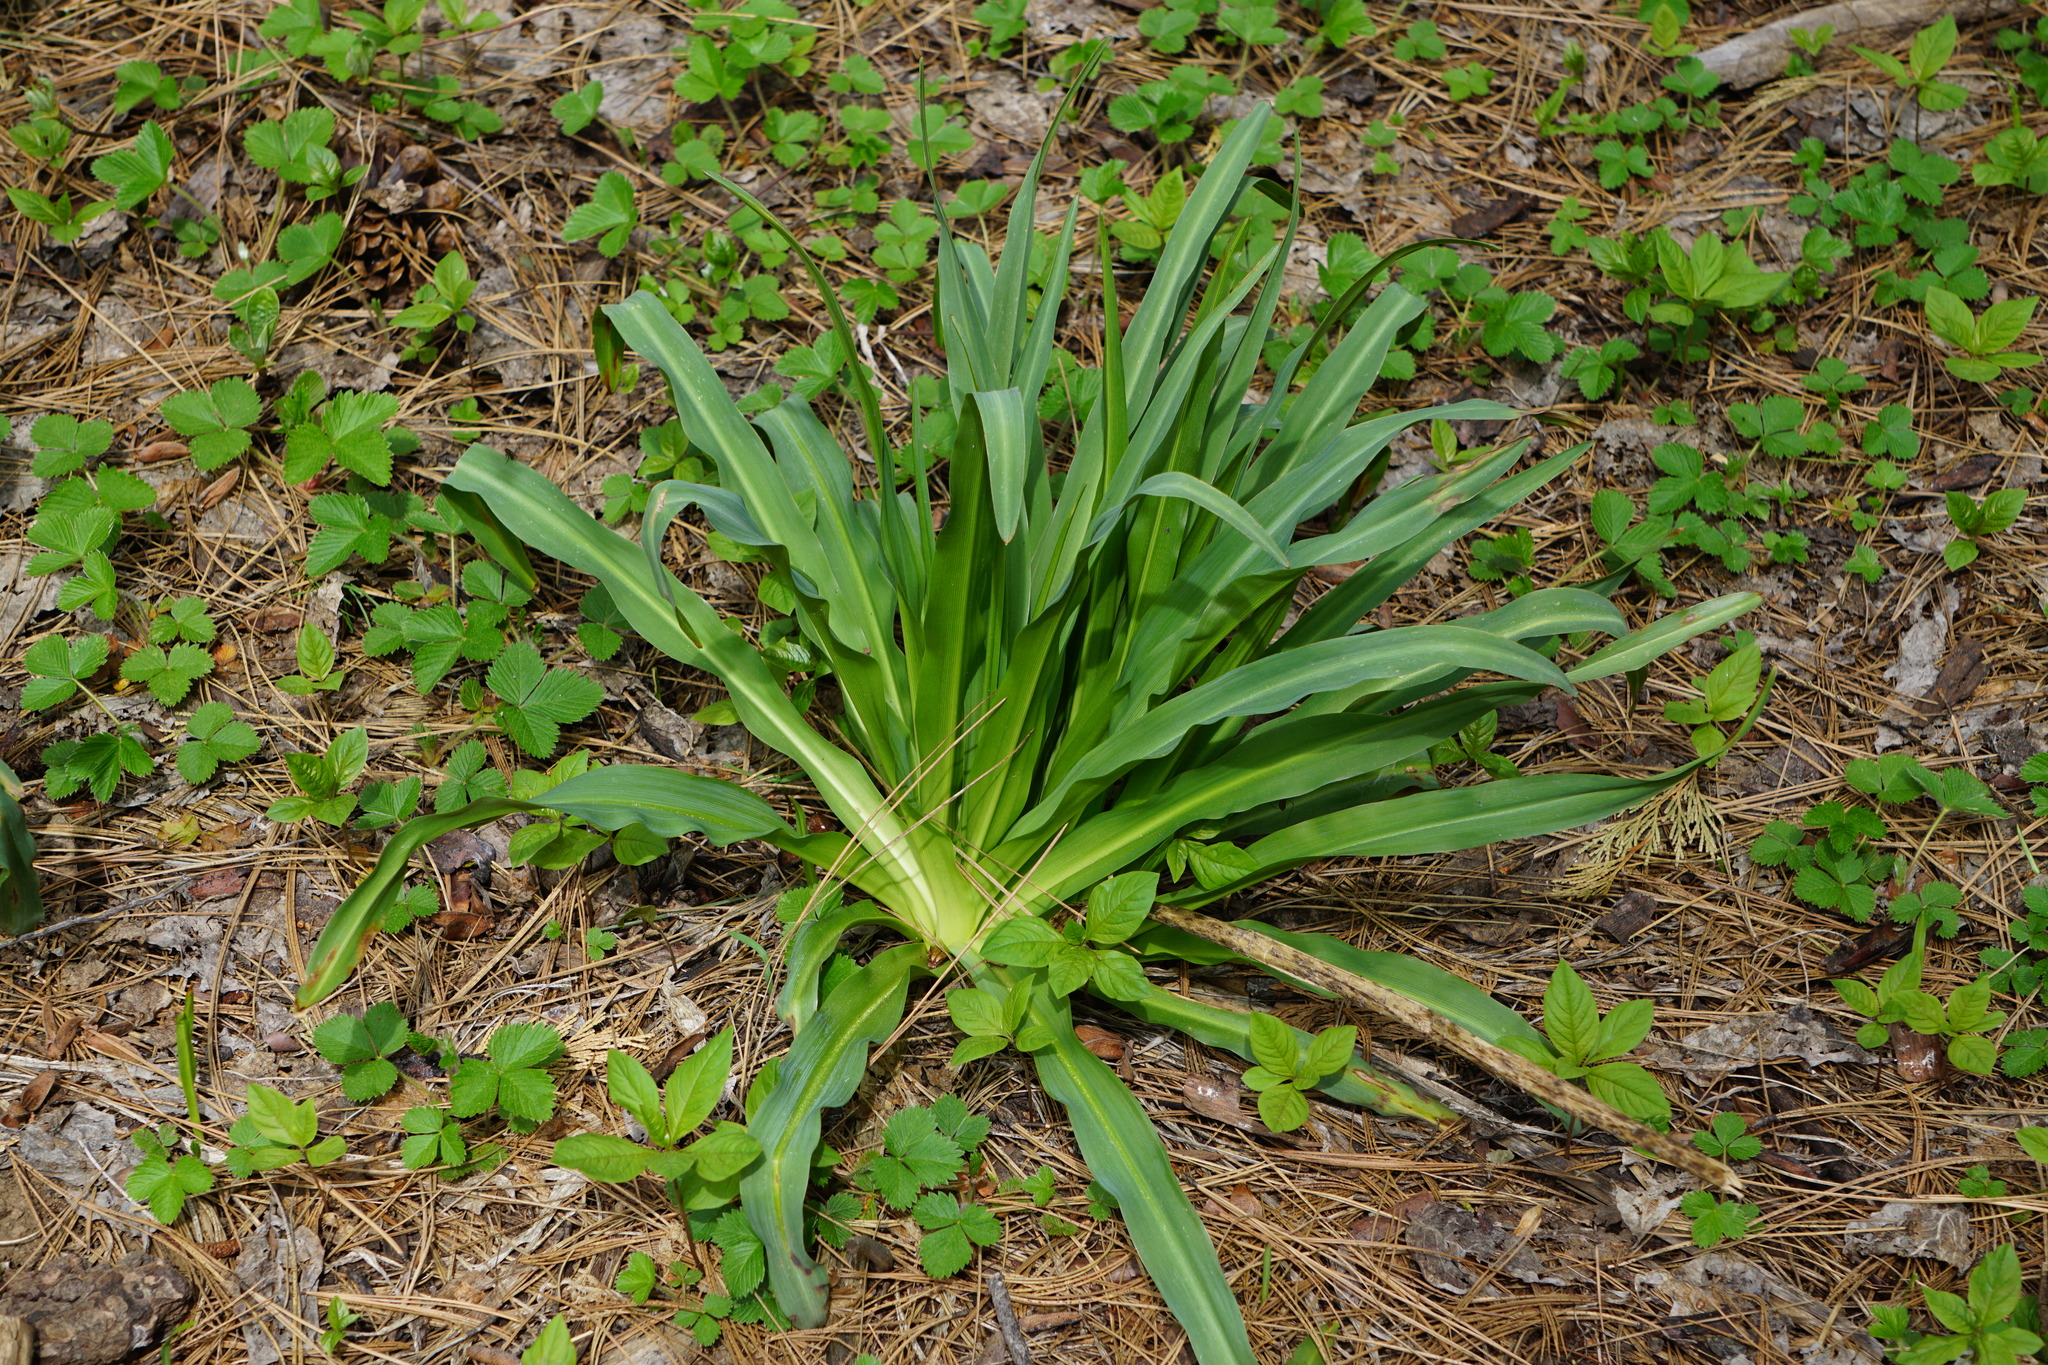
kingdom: Plantae
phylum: Tracheophyta
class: Liliopsida
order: Asparagales
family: Asparagaceae
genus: Chlorogalum
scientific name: Chlorogalum pomeridianum
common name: Amole
